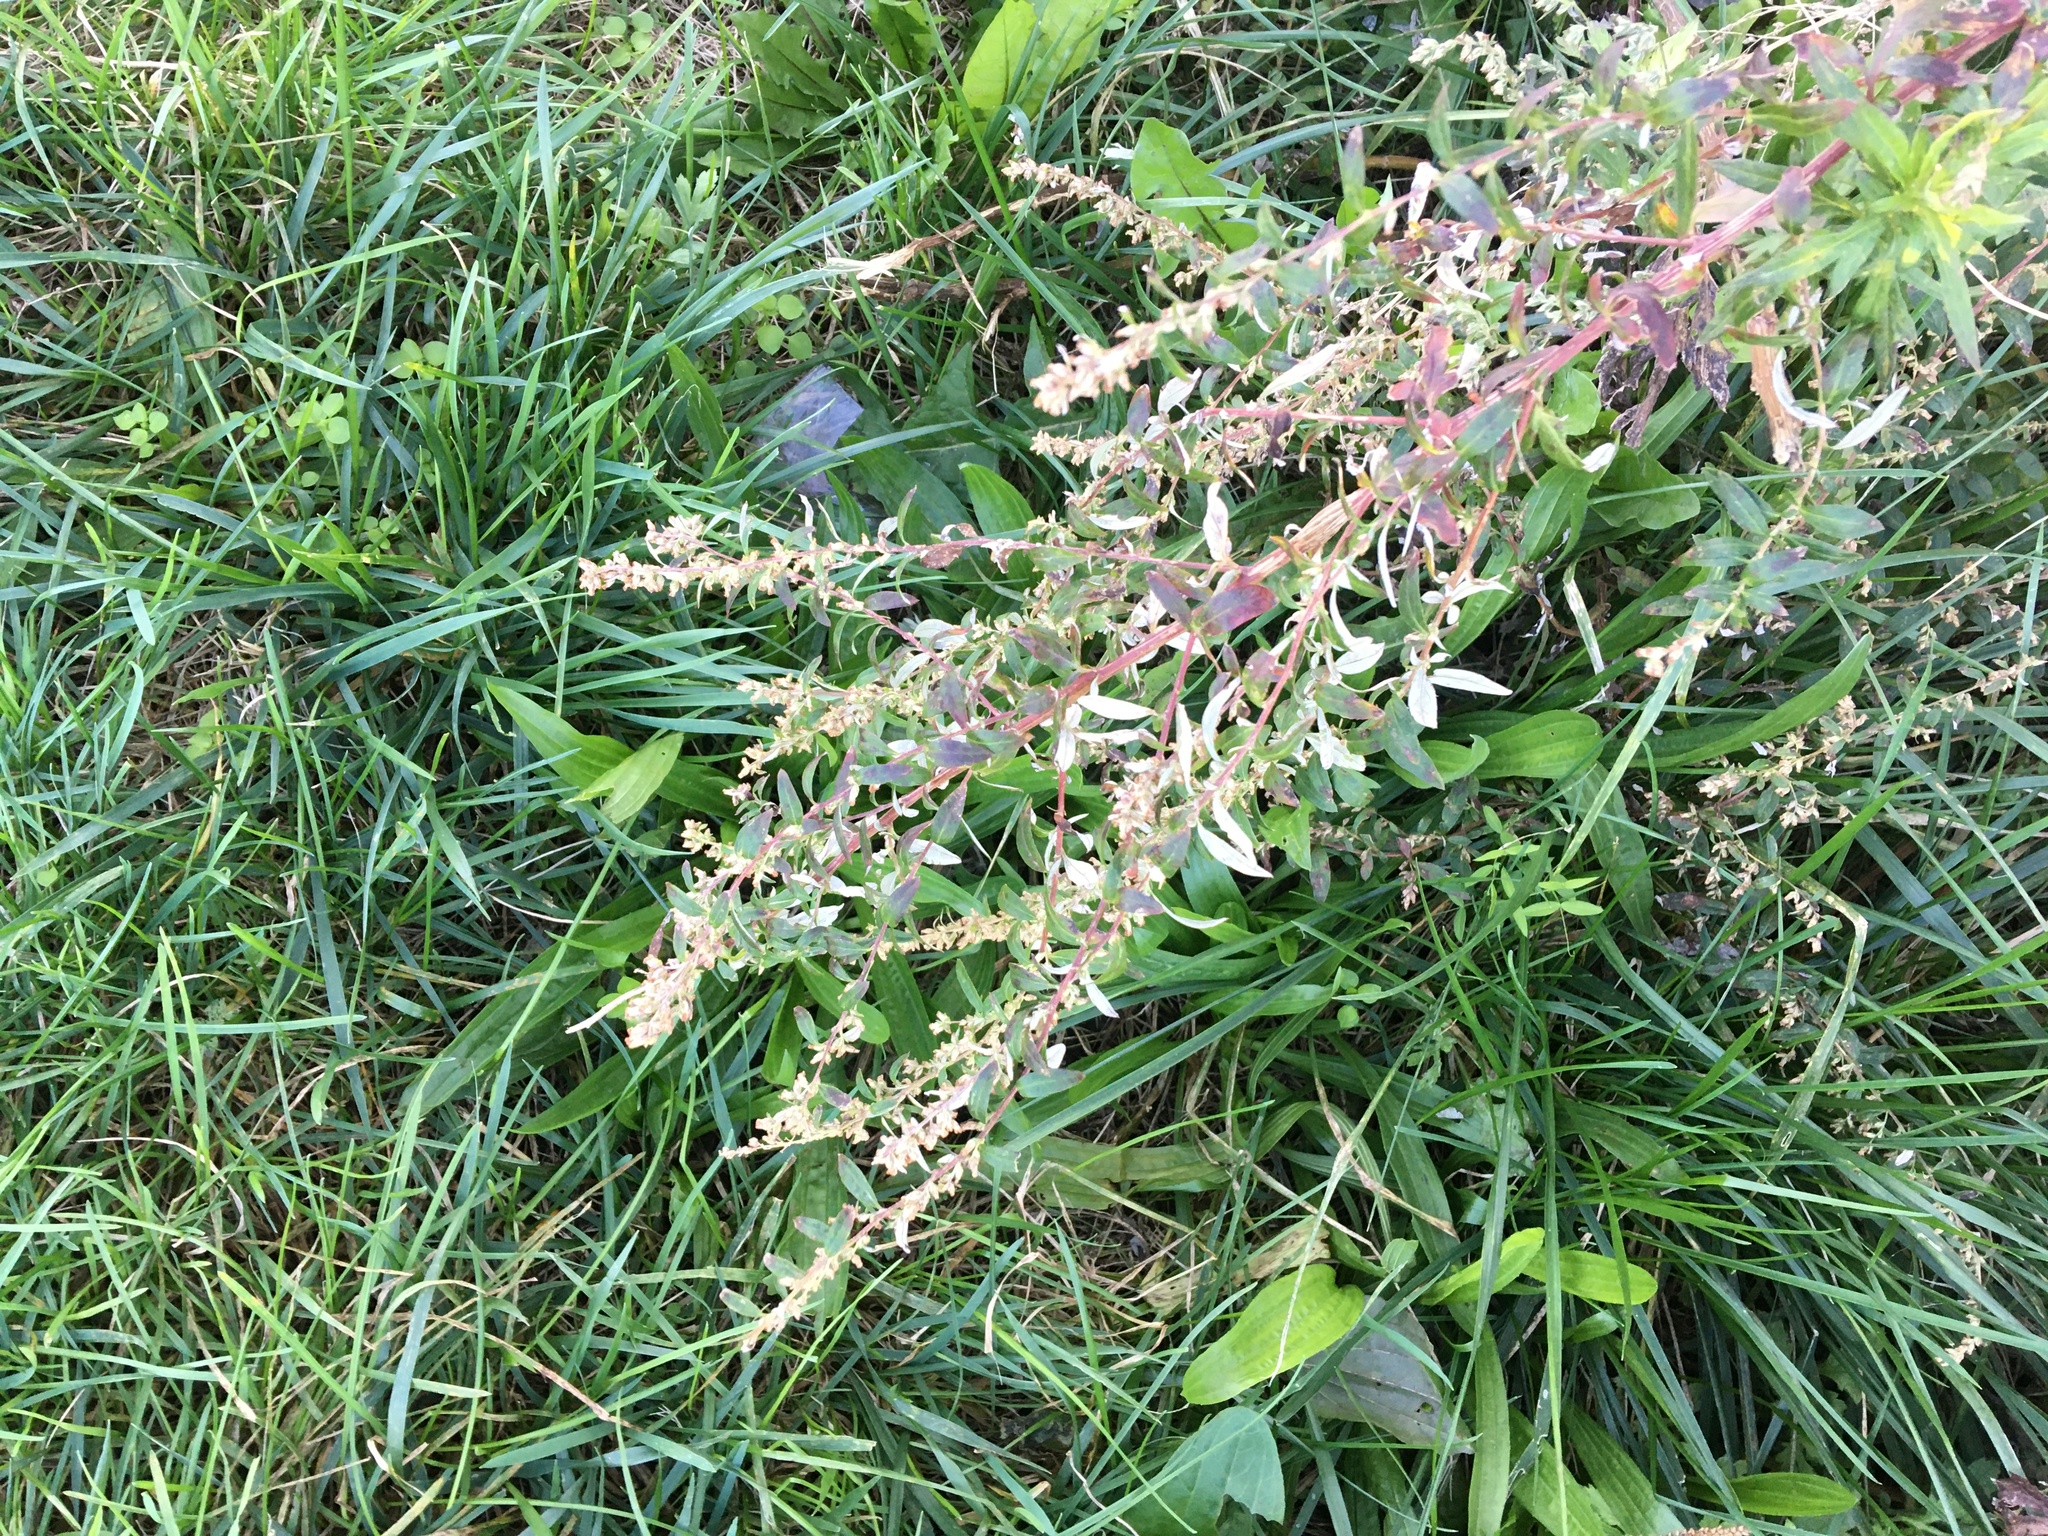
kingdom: Plantae
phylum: Tracheophyta
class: Magnoliopsida
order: Asterales
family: Asteraceae
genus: Artemisia
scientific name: Artemisia vulgaris
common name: Mugwort
